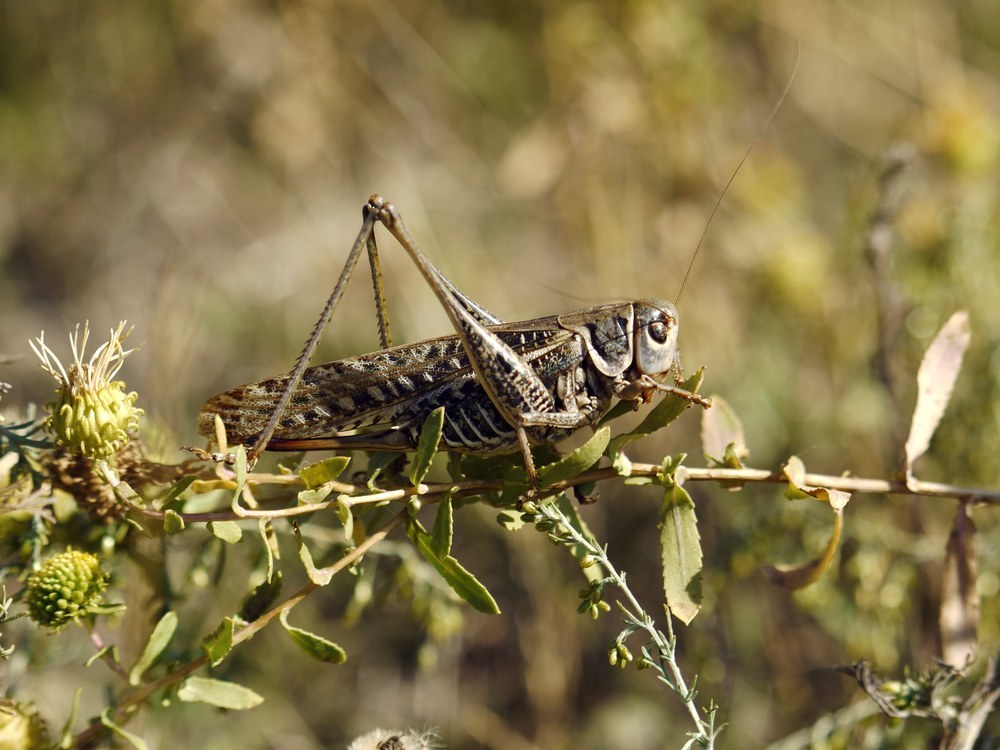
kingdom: Animalia
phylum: Arthropoda
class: Insecta
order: Orthoptera
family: Tettigoniidae
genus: Decticus
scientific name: Decticus albifrons
